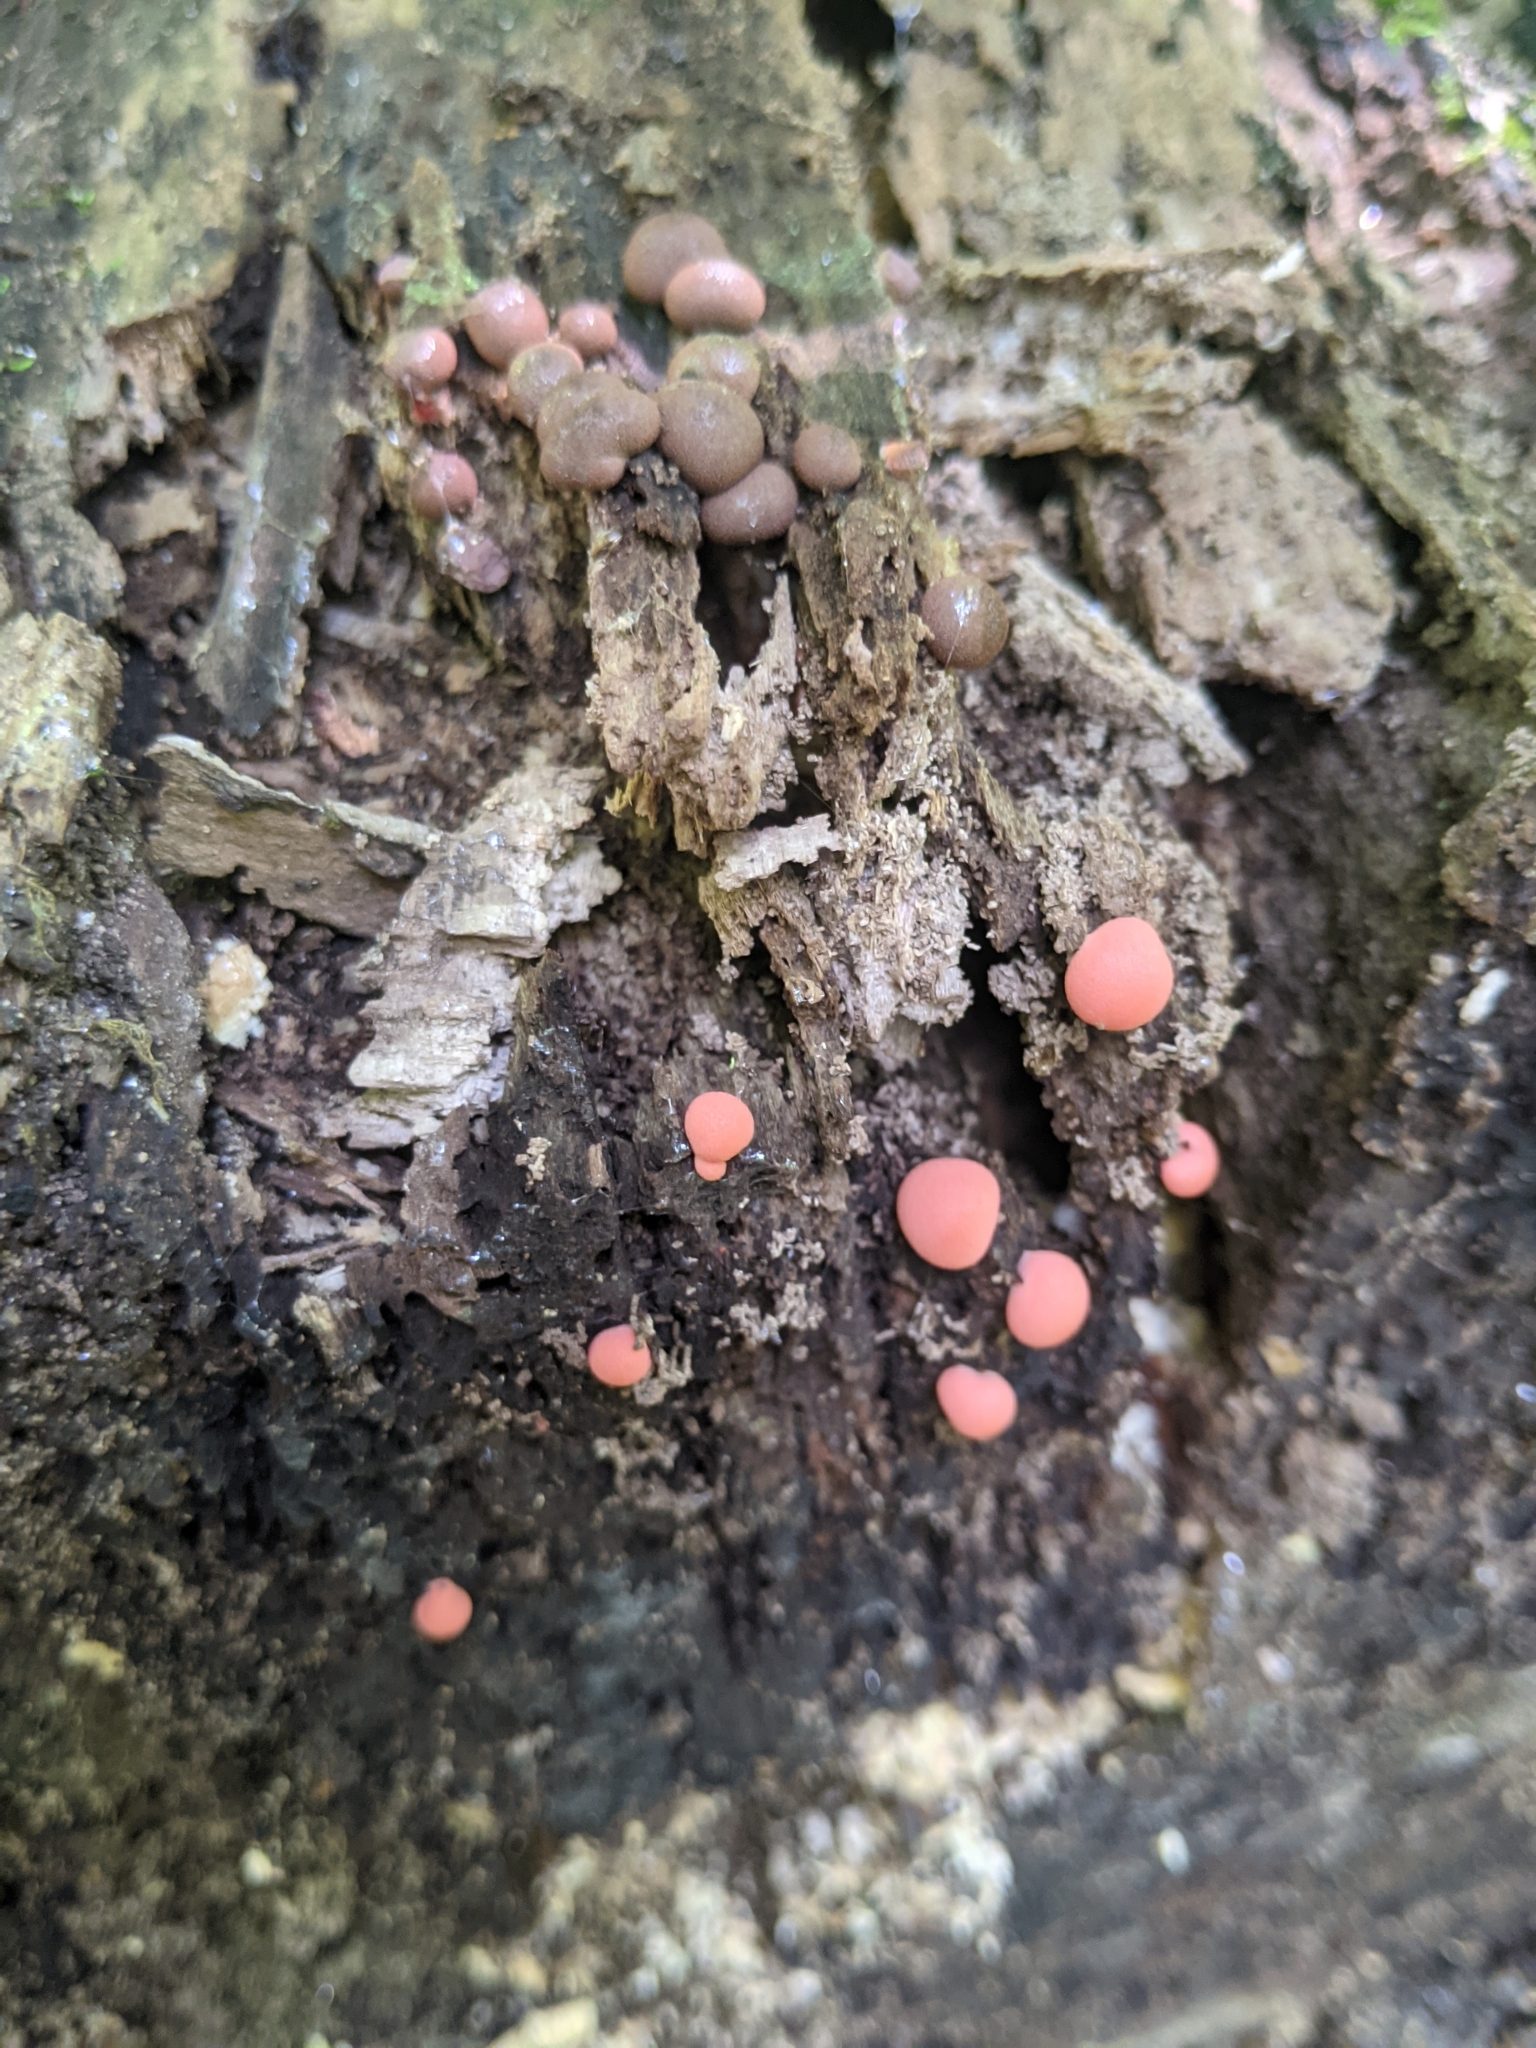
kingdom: Protozoa
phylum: Mycetozoa
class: Myxomycetes
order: Cribrariales
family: Tubiferaceae
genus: Lycogala
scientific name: Lycogala epidendrum
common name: Wolf's milk
